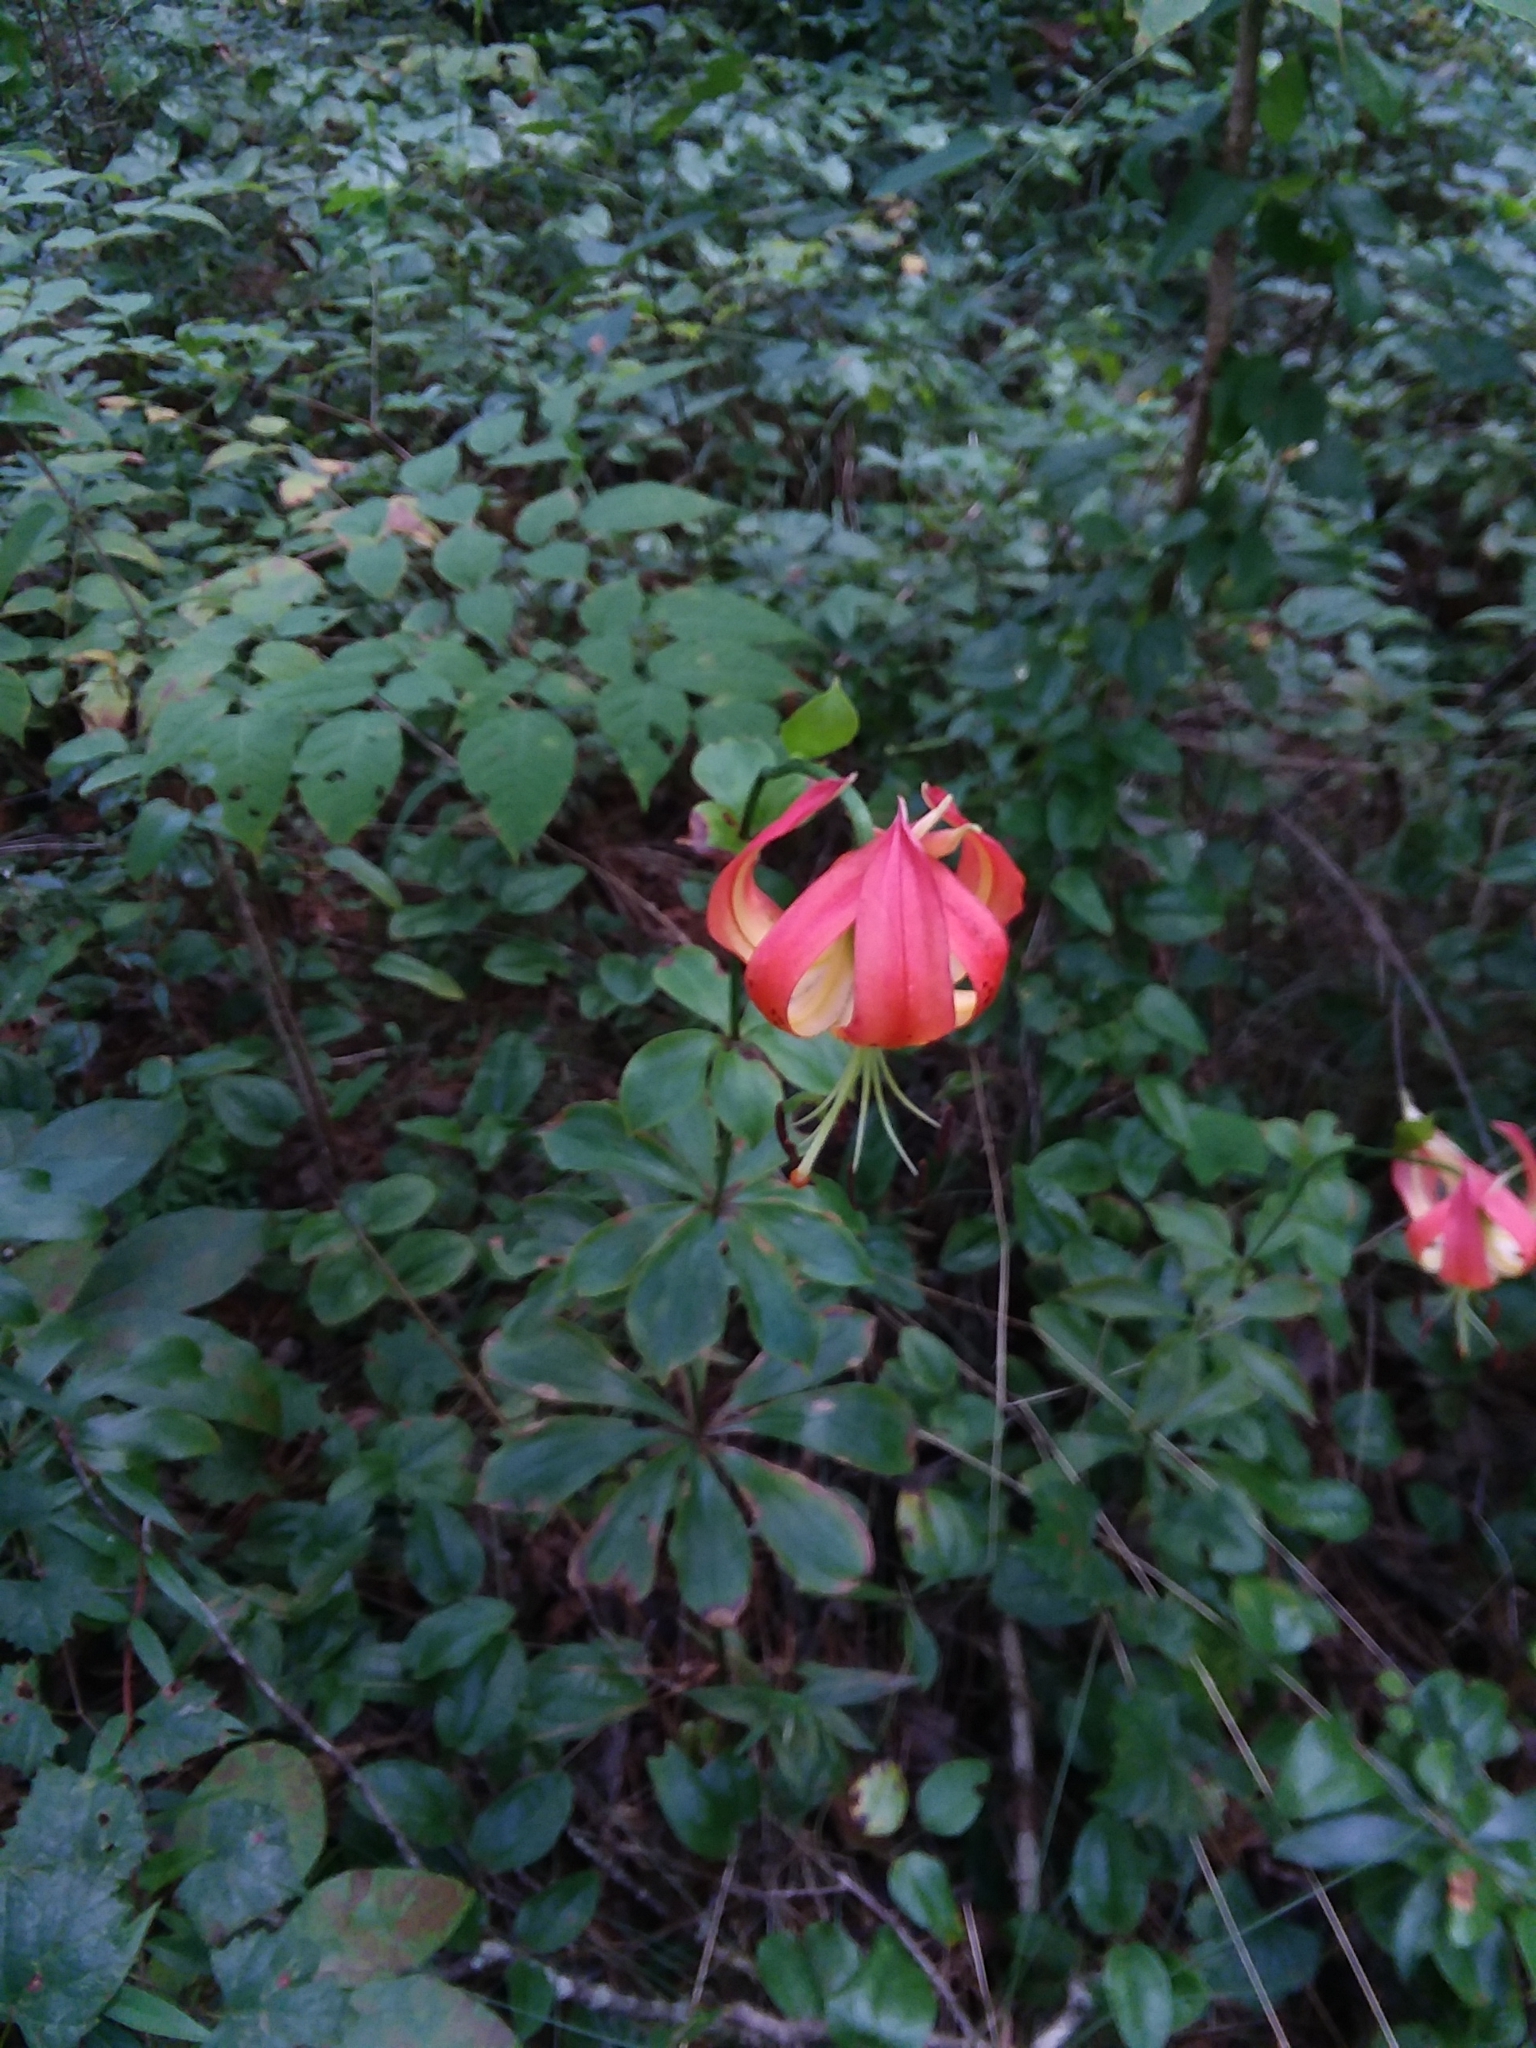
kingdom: Plantae
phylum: Tracheophyta
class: Liliopsida
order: Liliales
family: Liliaceae
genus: Lilium
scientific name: Lilium michauxii
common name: Carolina lily
